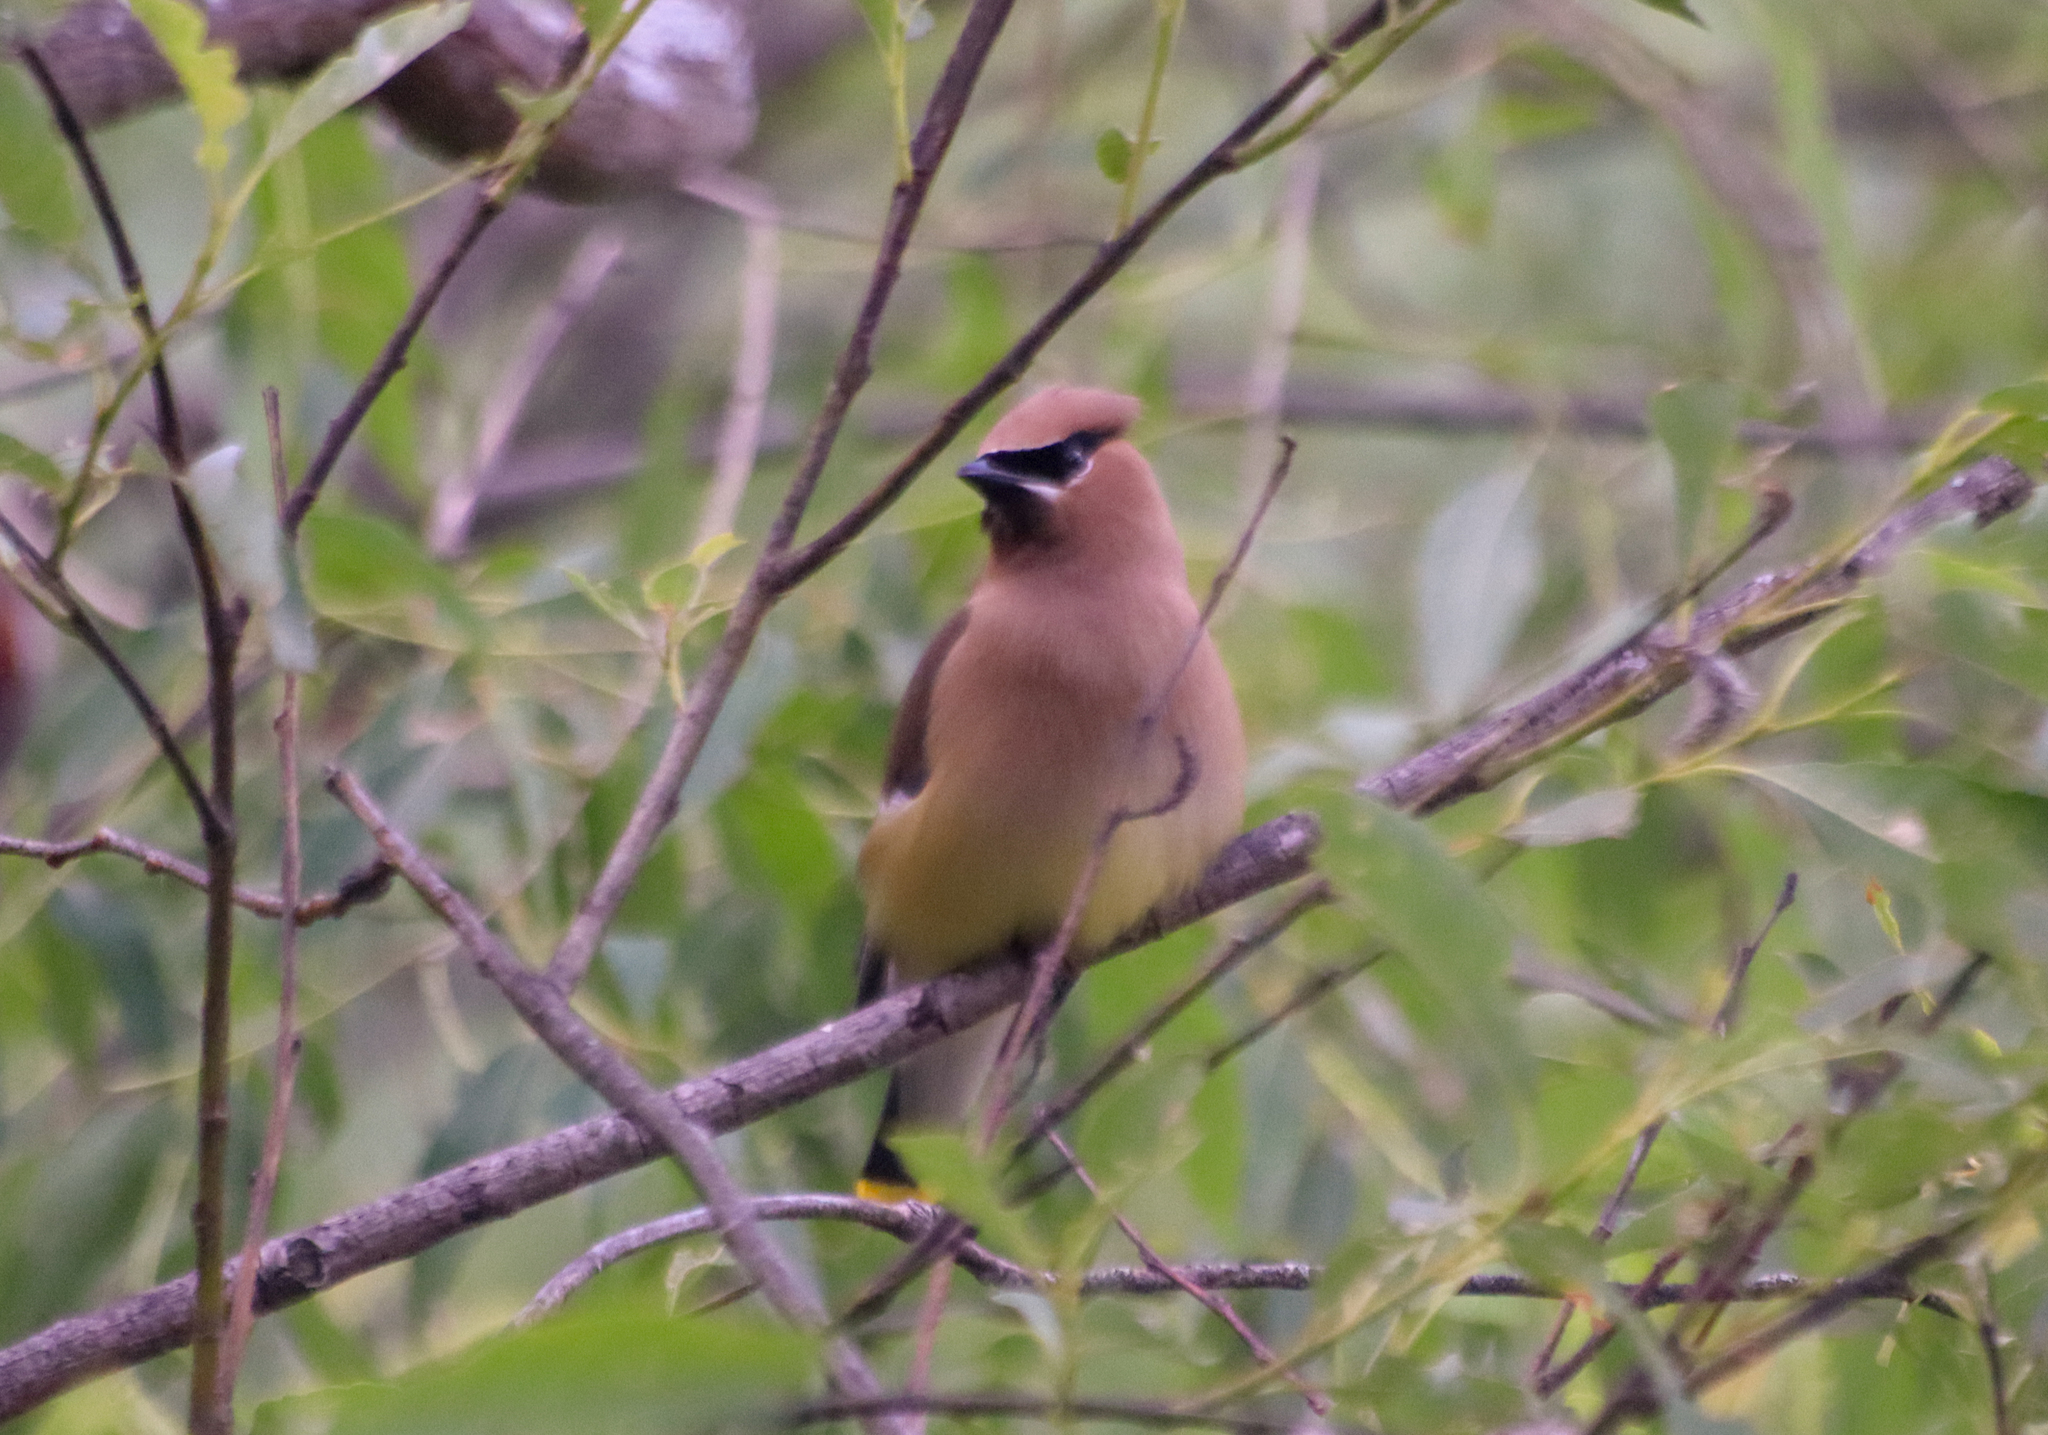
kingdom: Animalia
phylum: Chordata
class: Aves
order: Passeriformes
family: Bombycillidae
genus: Bombycilla
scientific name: Bombycilla cedrorum
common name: Cedar waxwing
